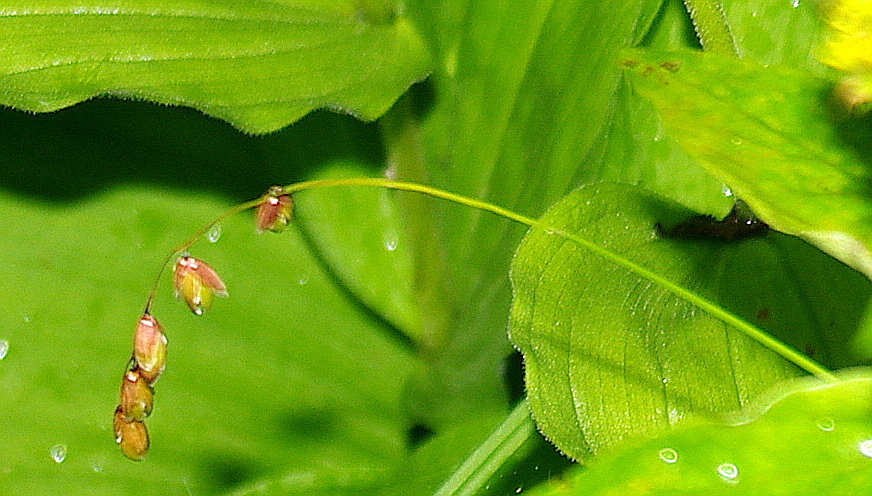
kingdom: Plantae
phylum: Tracheophyta
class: Liliopsida
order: Poales
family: Poaceae
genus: Melica
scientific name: Melica nutans
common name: Mountain melick
